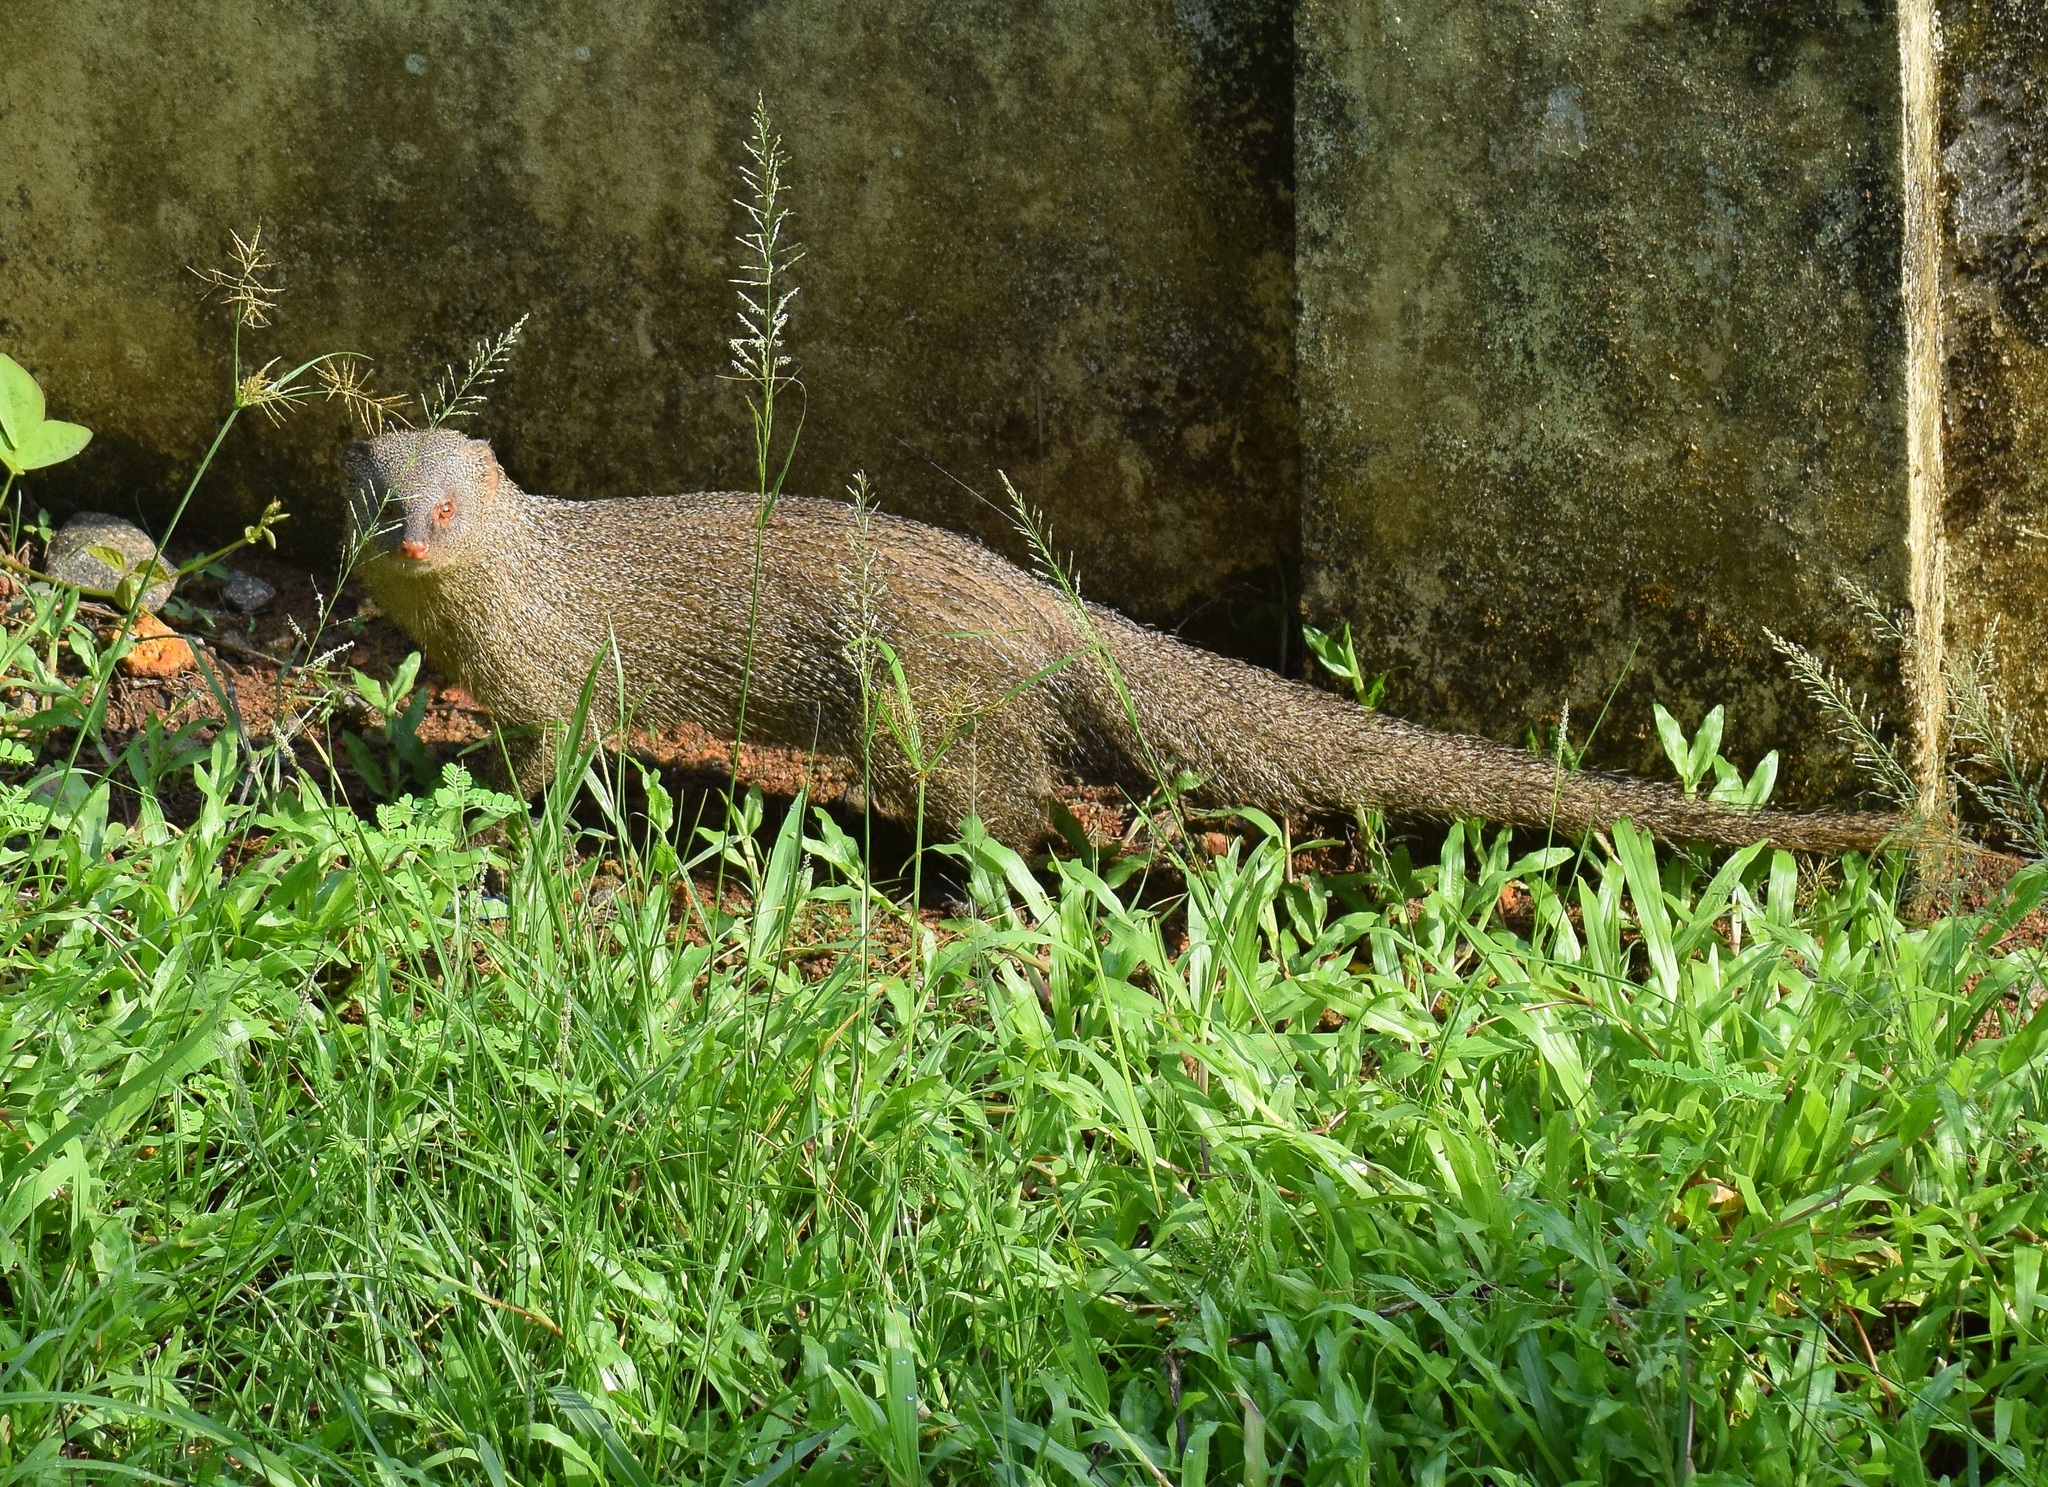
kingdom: Animalia
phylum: Chordata
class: Mammalia
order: Carnivora
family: Herpestidae
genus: Herpestes
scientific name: Herpestes edwardsi
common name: Indian gray mongoose
